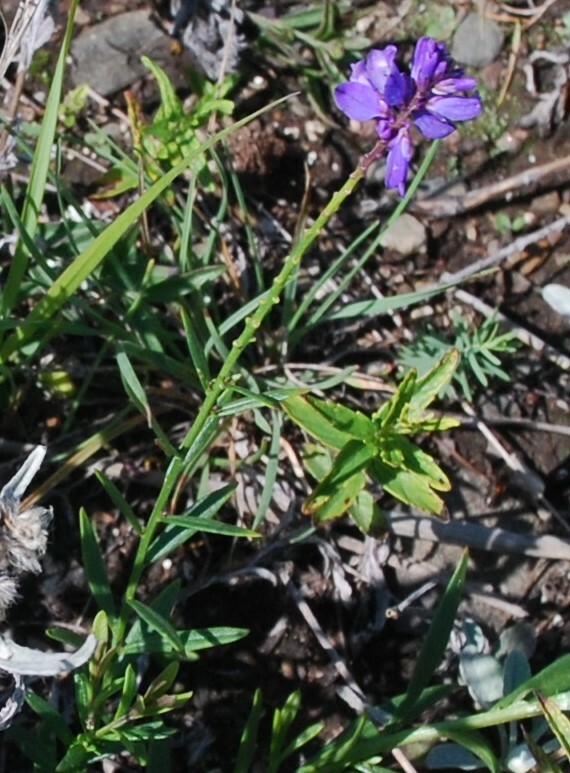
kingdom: Plantae
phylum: Tracheophyta
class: Magnoliopsida
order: Fabales
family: Polygalaceae
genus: Polygala
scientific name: Polygala comosa
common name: Tufted milkwort
